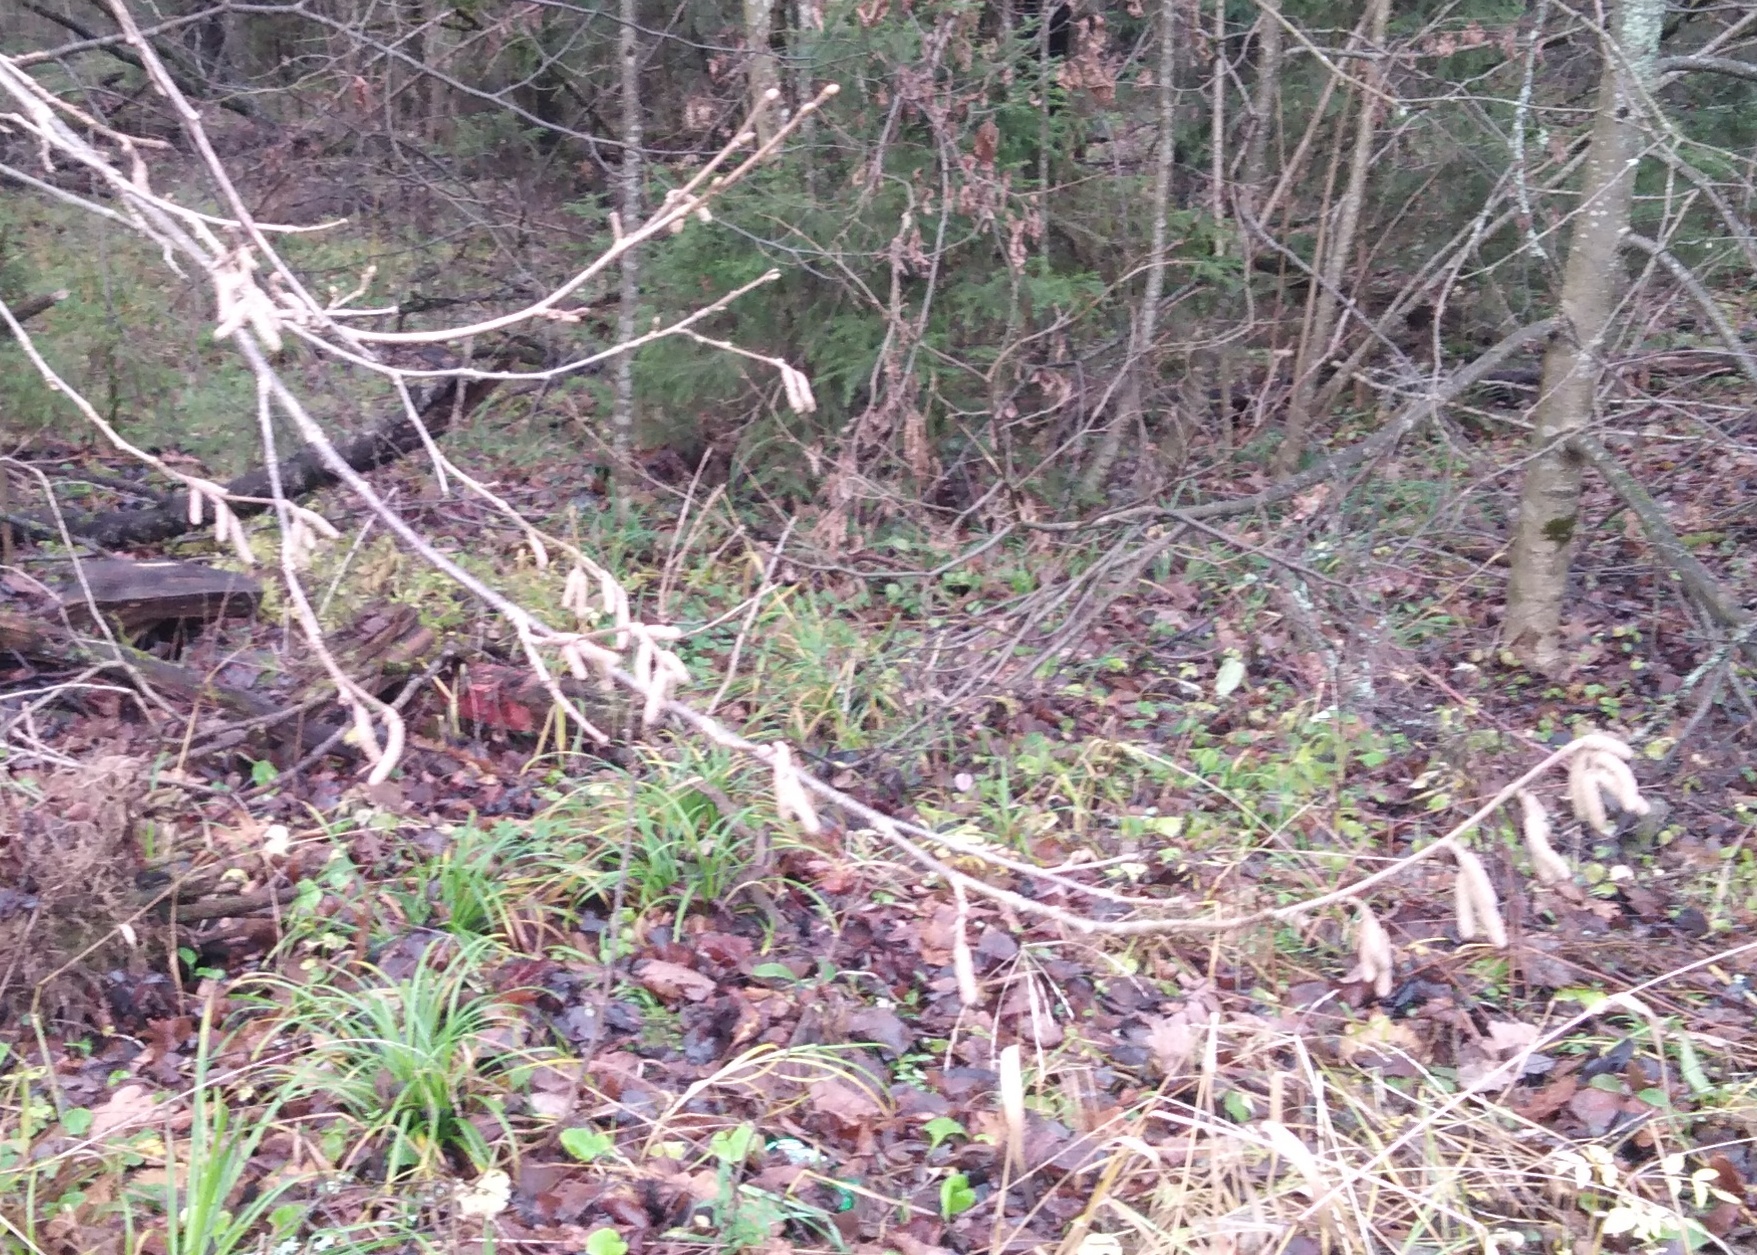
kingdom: Plantae
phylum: Tracheophyta
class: Magnoliopsida
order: Fagales
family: Betulaceae
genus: Corylus
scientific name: Corylus avellana
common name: European hazel
